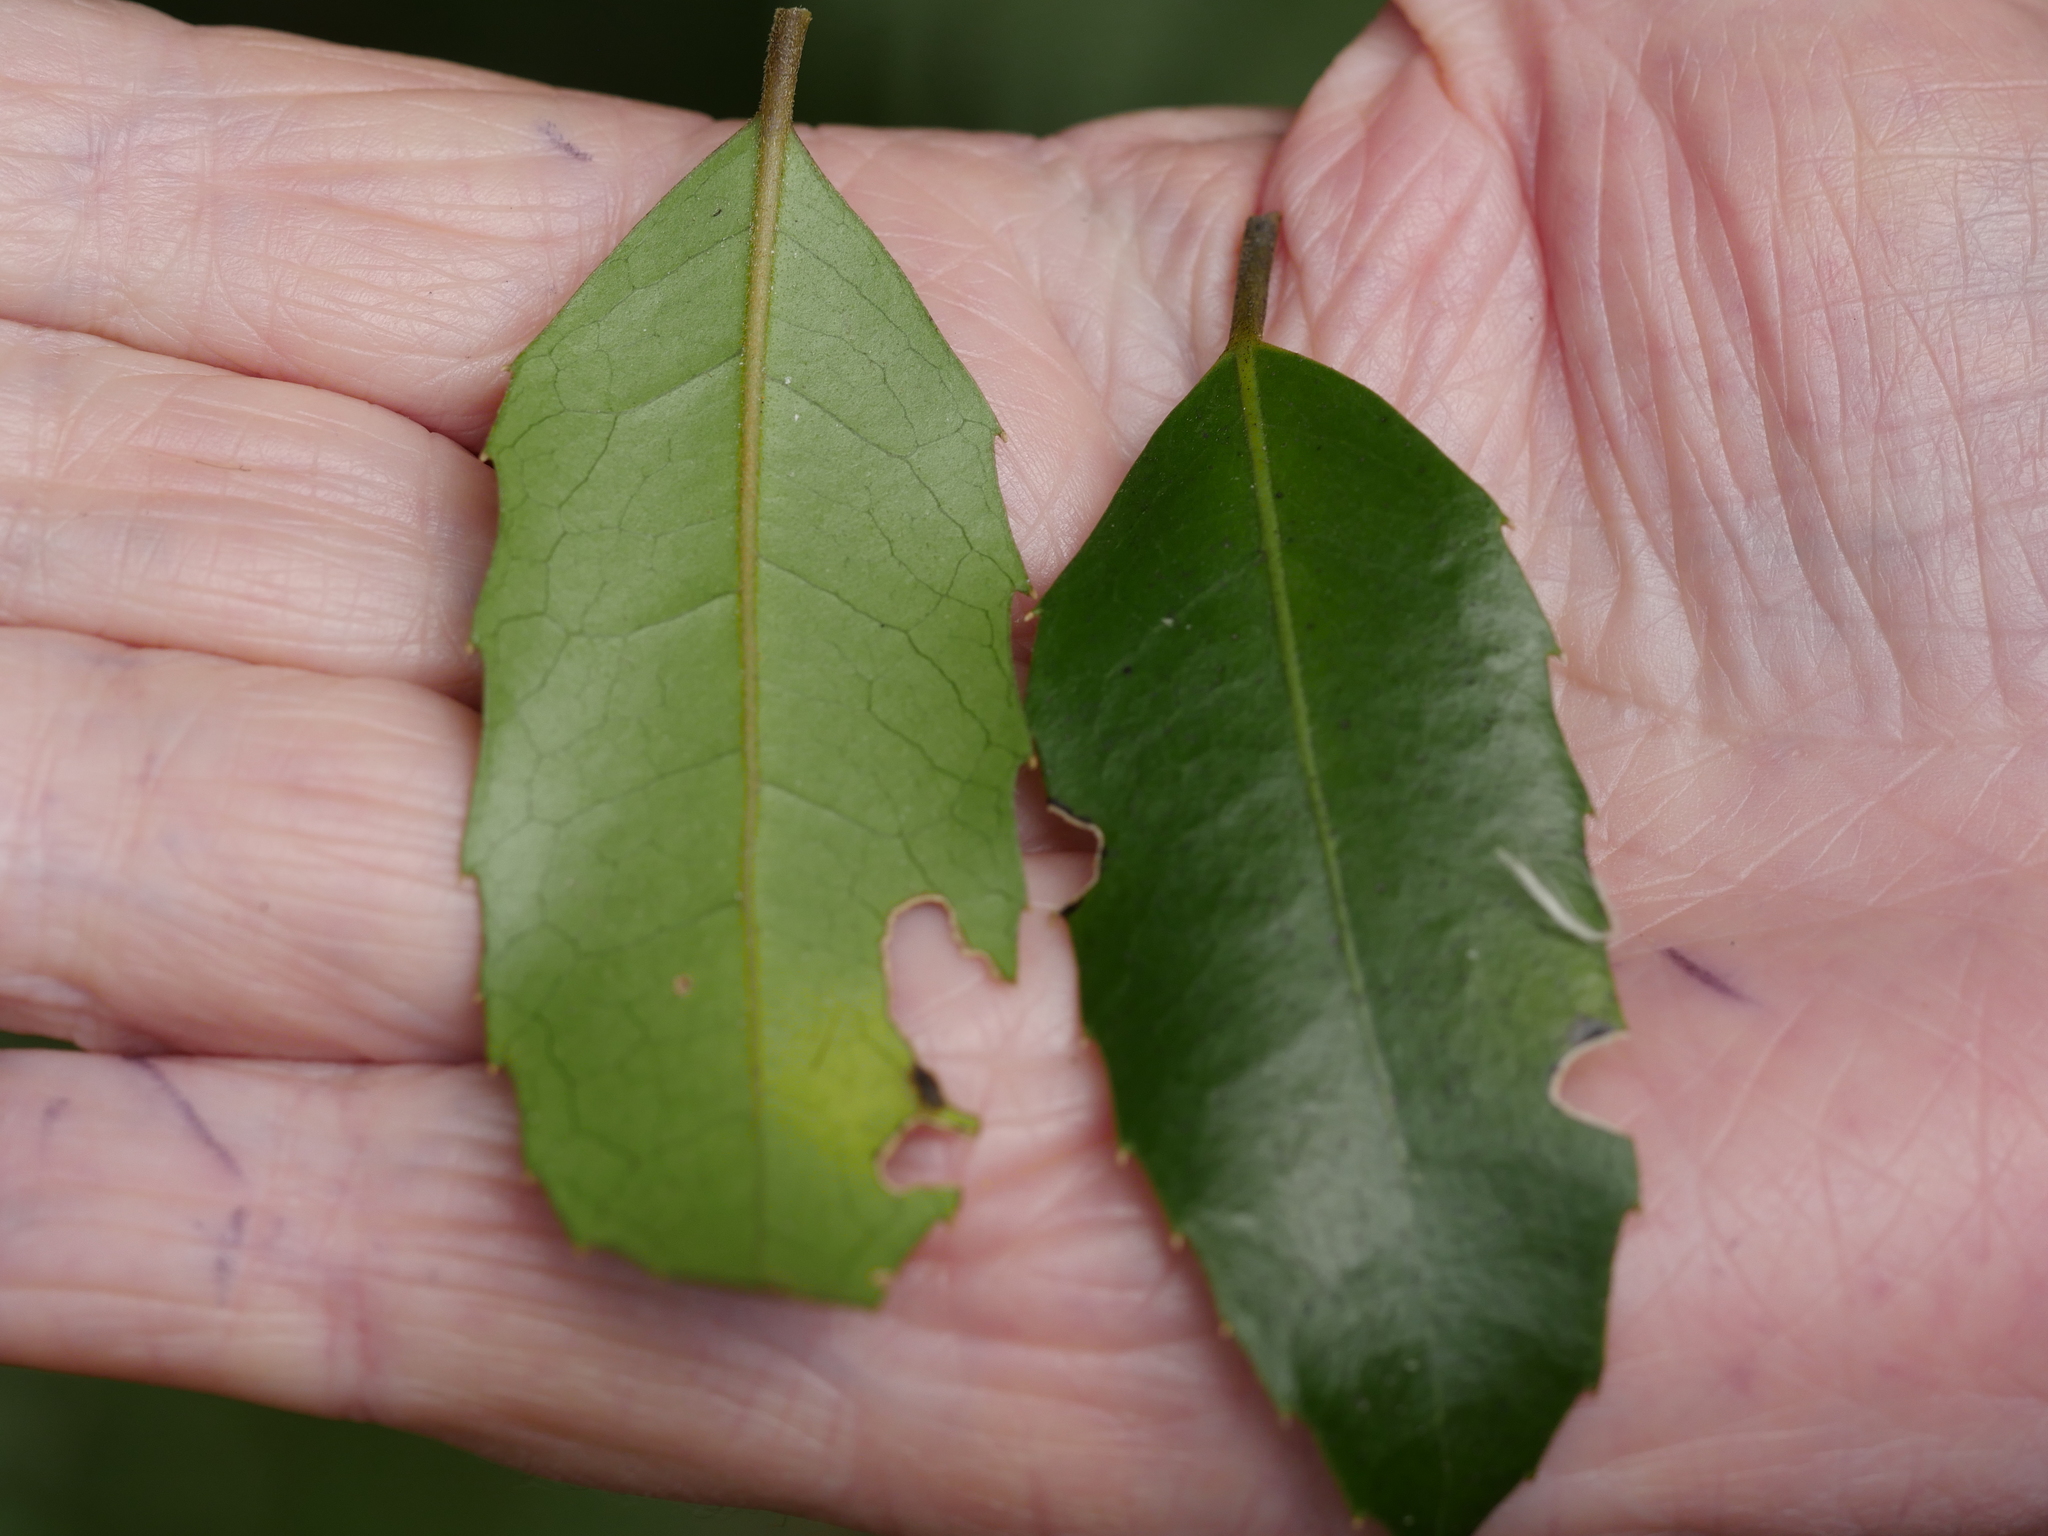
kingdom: Plantae
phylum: Tracheophyta
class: Magnoliopsida
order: Laurales
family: Monimiaceae
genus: Hedycarya
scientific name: Hedycarya arborea
